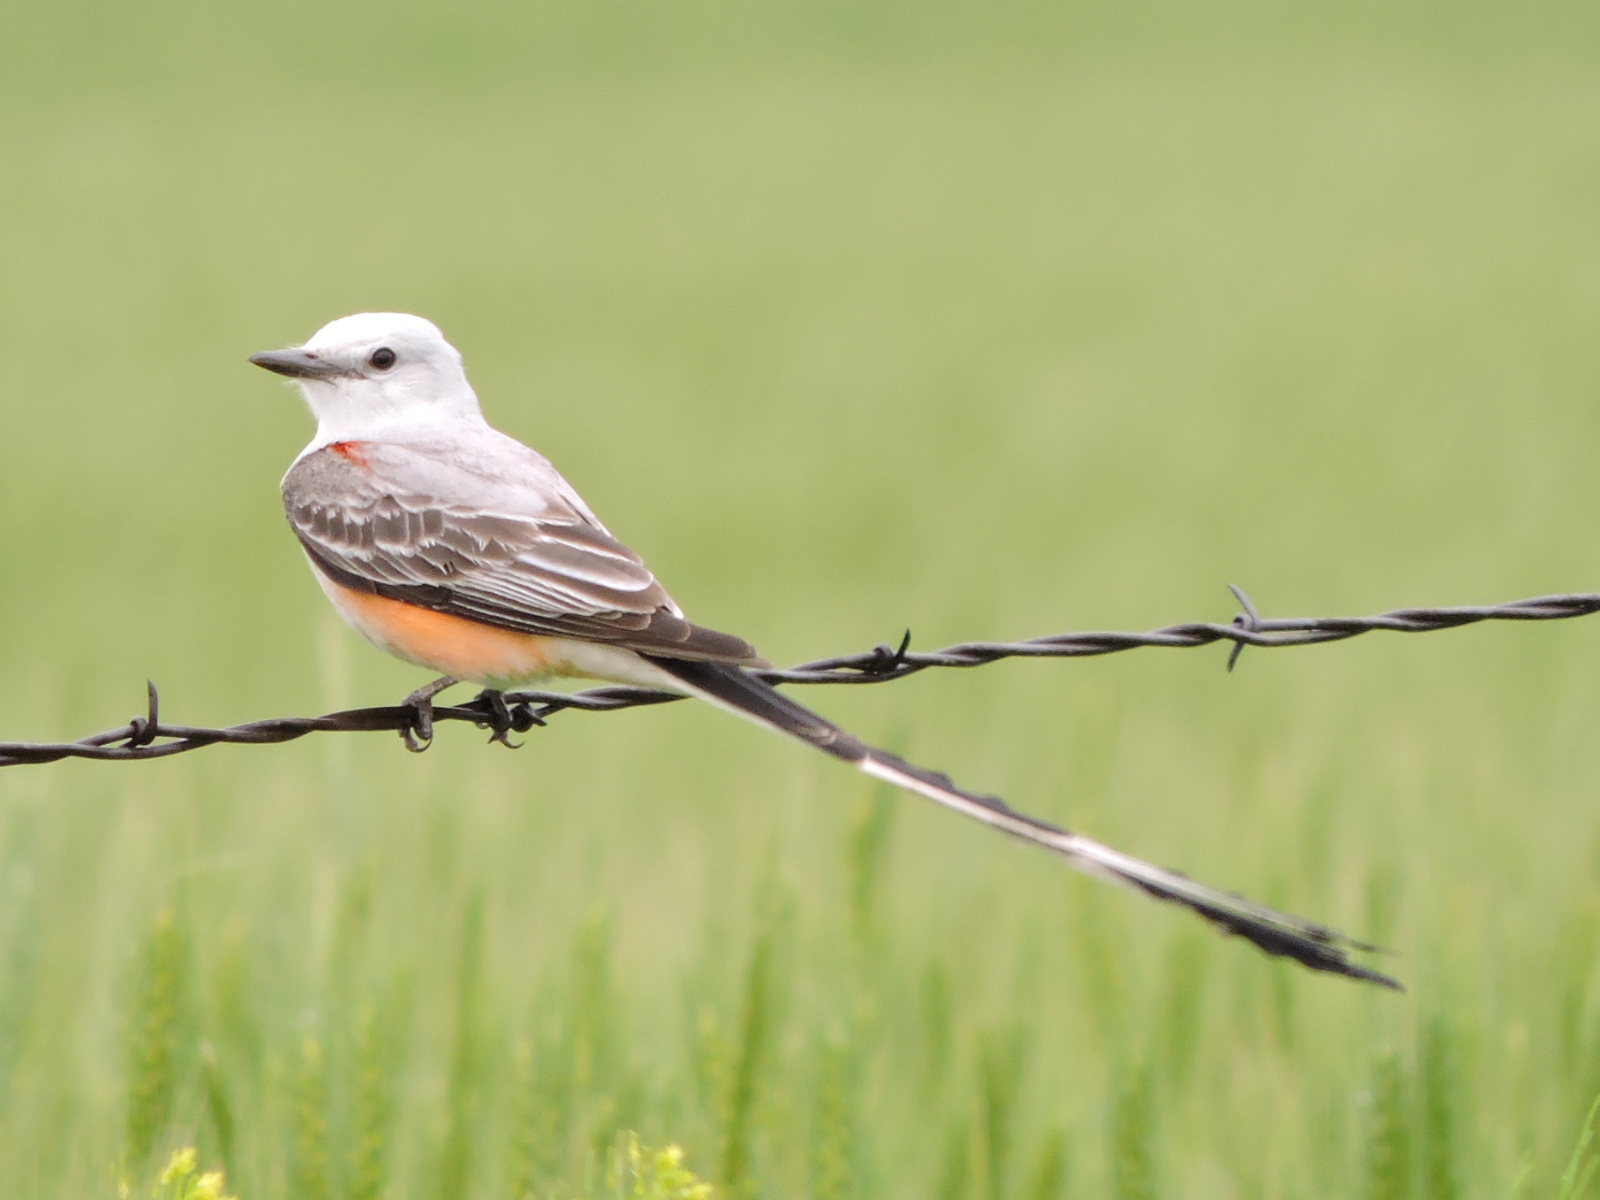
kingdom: Animalia
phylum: Chordata
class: Aves
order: Passeriformes
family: Tyrannidae
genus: Tyrannus
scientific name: Tyrannus forficatus
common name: Scissor-tailed flycatcher
